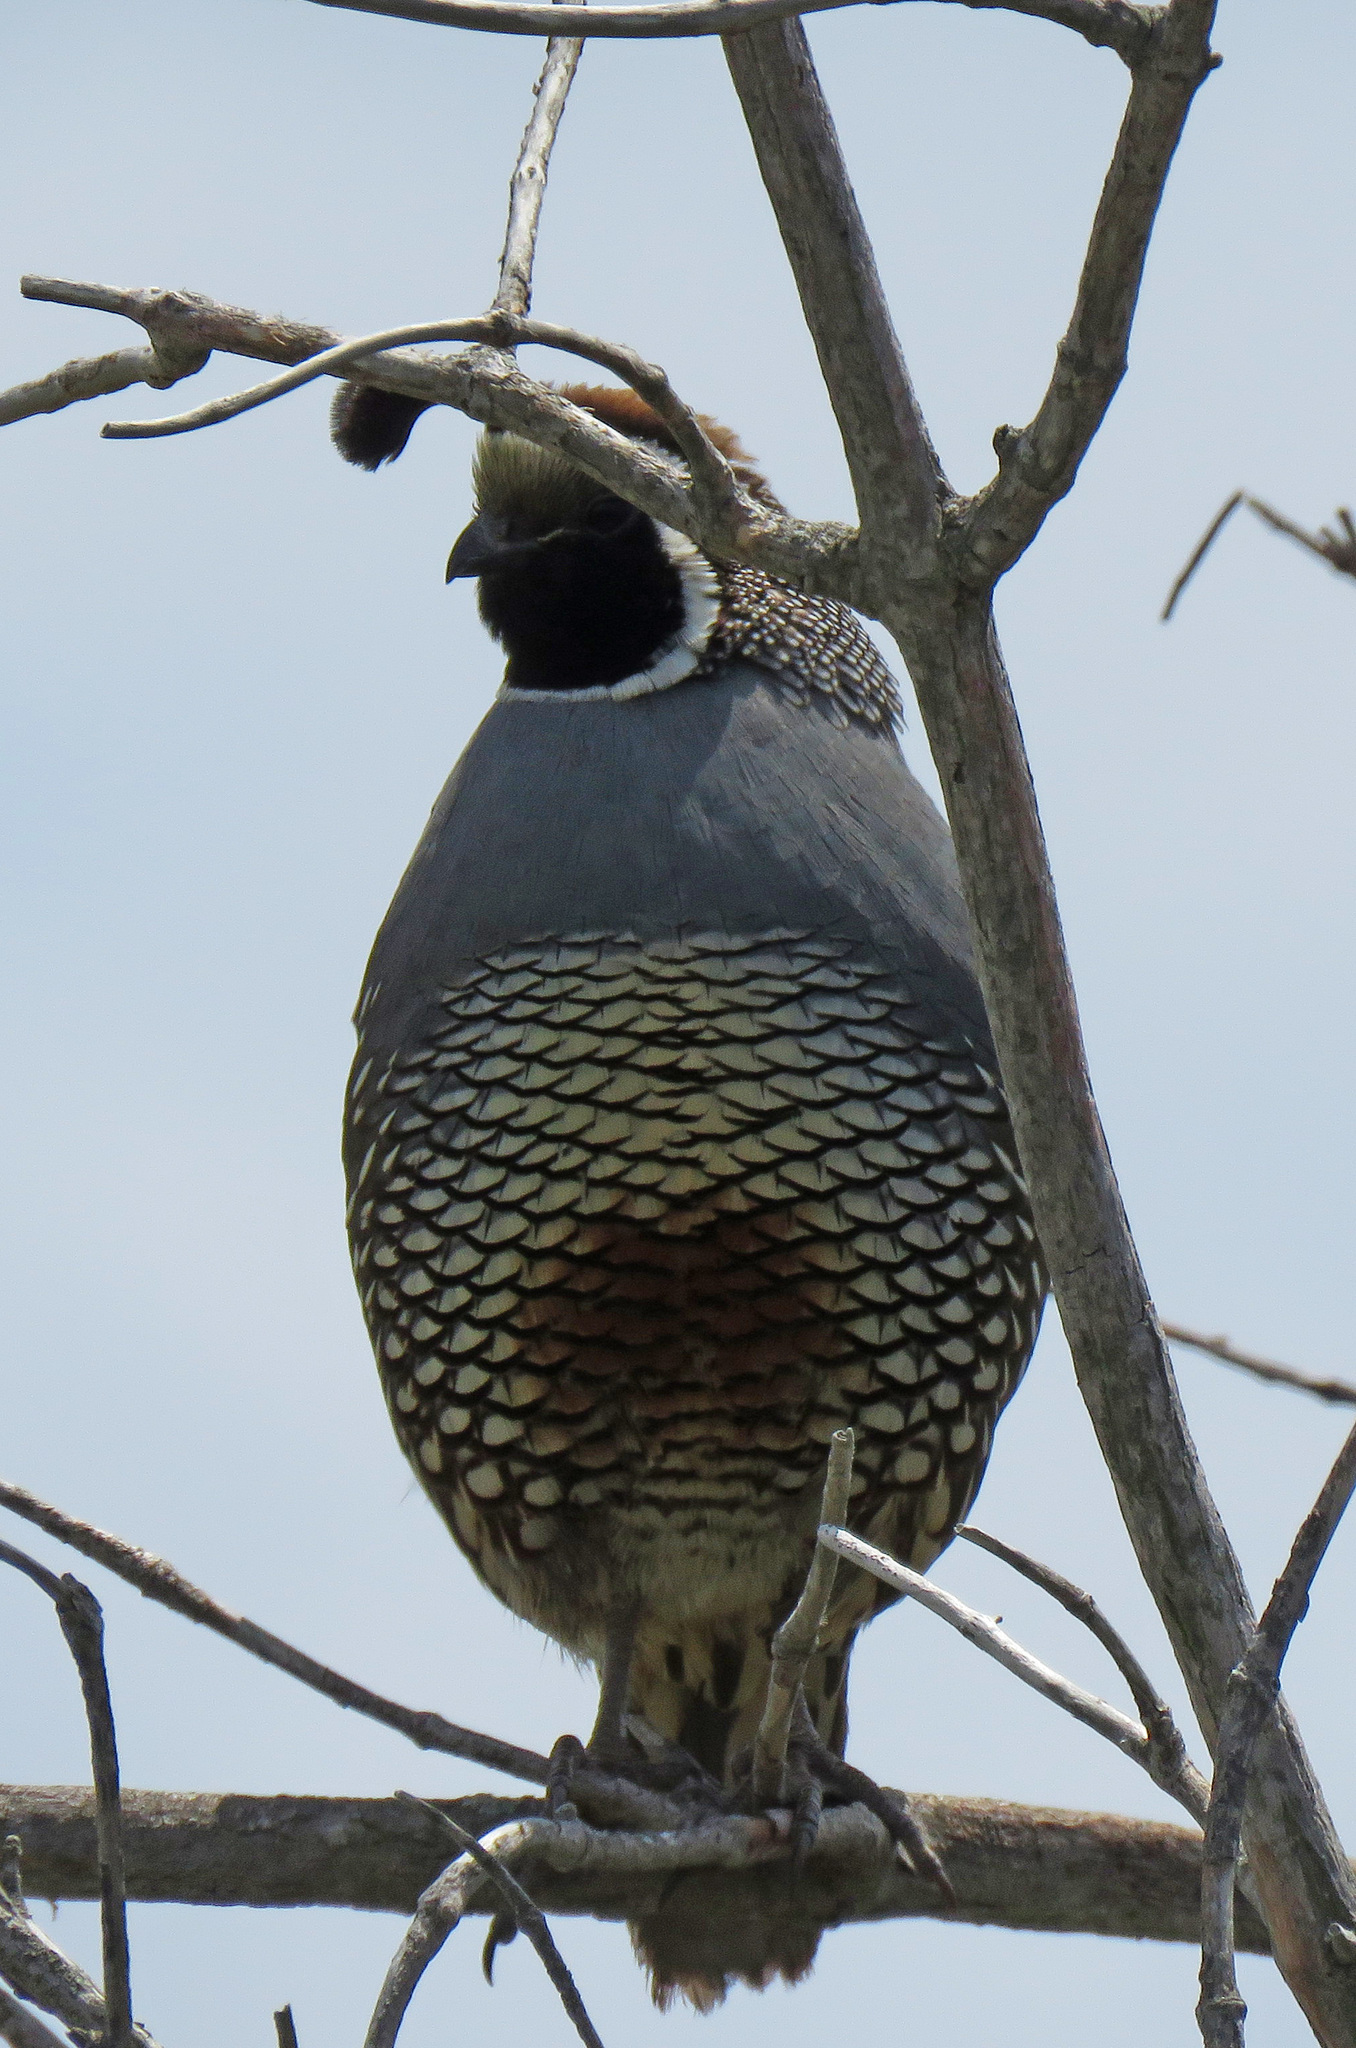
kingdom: Animalia
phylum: Chordata
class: Aves
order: Galliformes
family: Odontophoridae
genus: Callipepla
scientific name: Callipepla californica
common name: California quail
